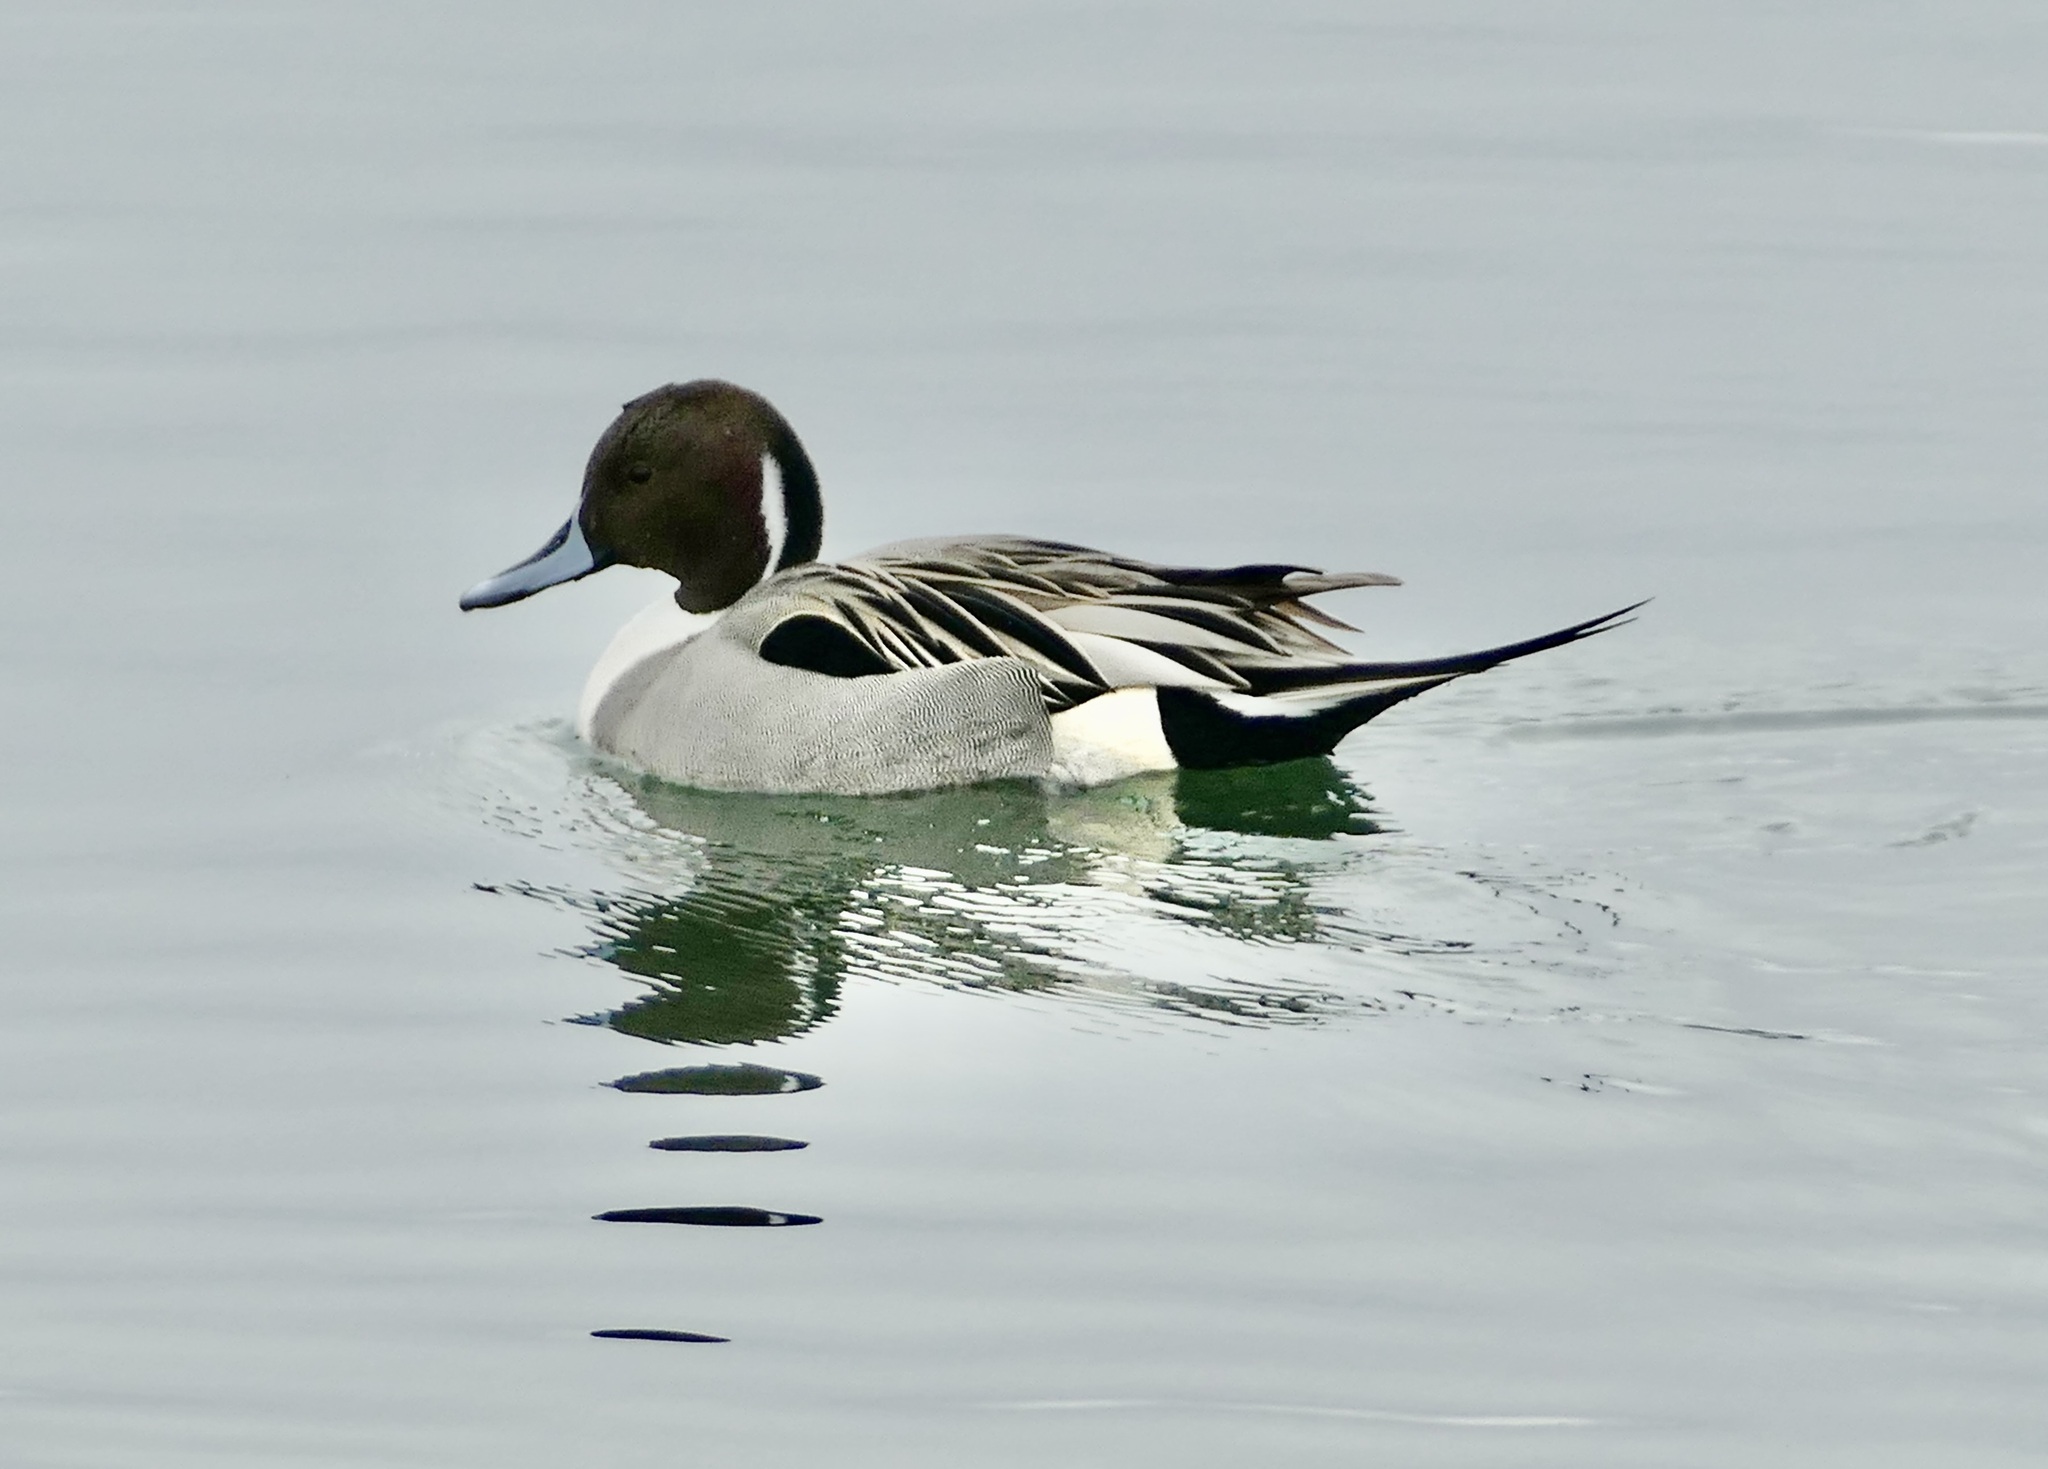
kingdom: Animalia
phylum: Chordata
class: Aves
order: Anseriformes
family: Anatidae
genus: Anas
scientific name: Anas acuta
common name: Northern pintail
